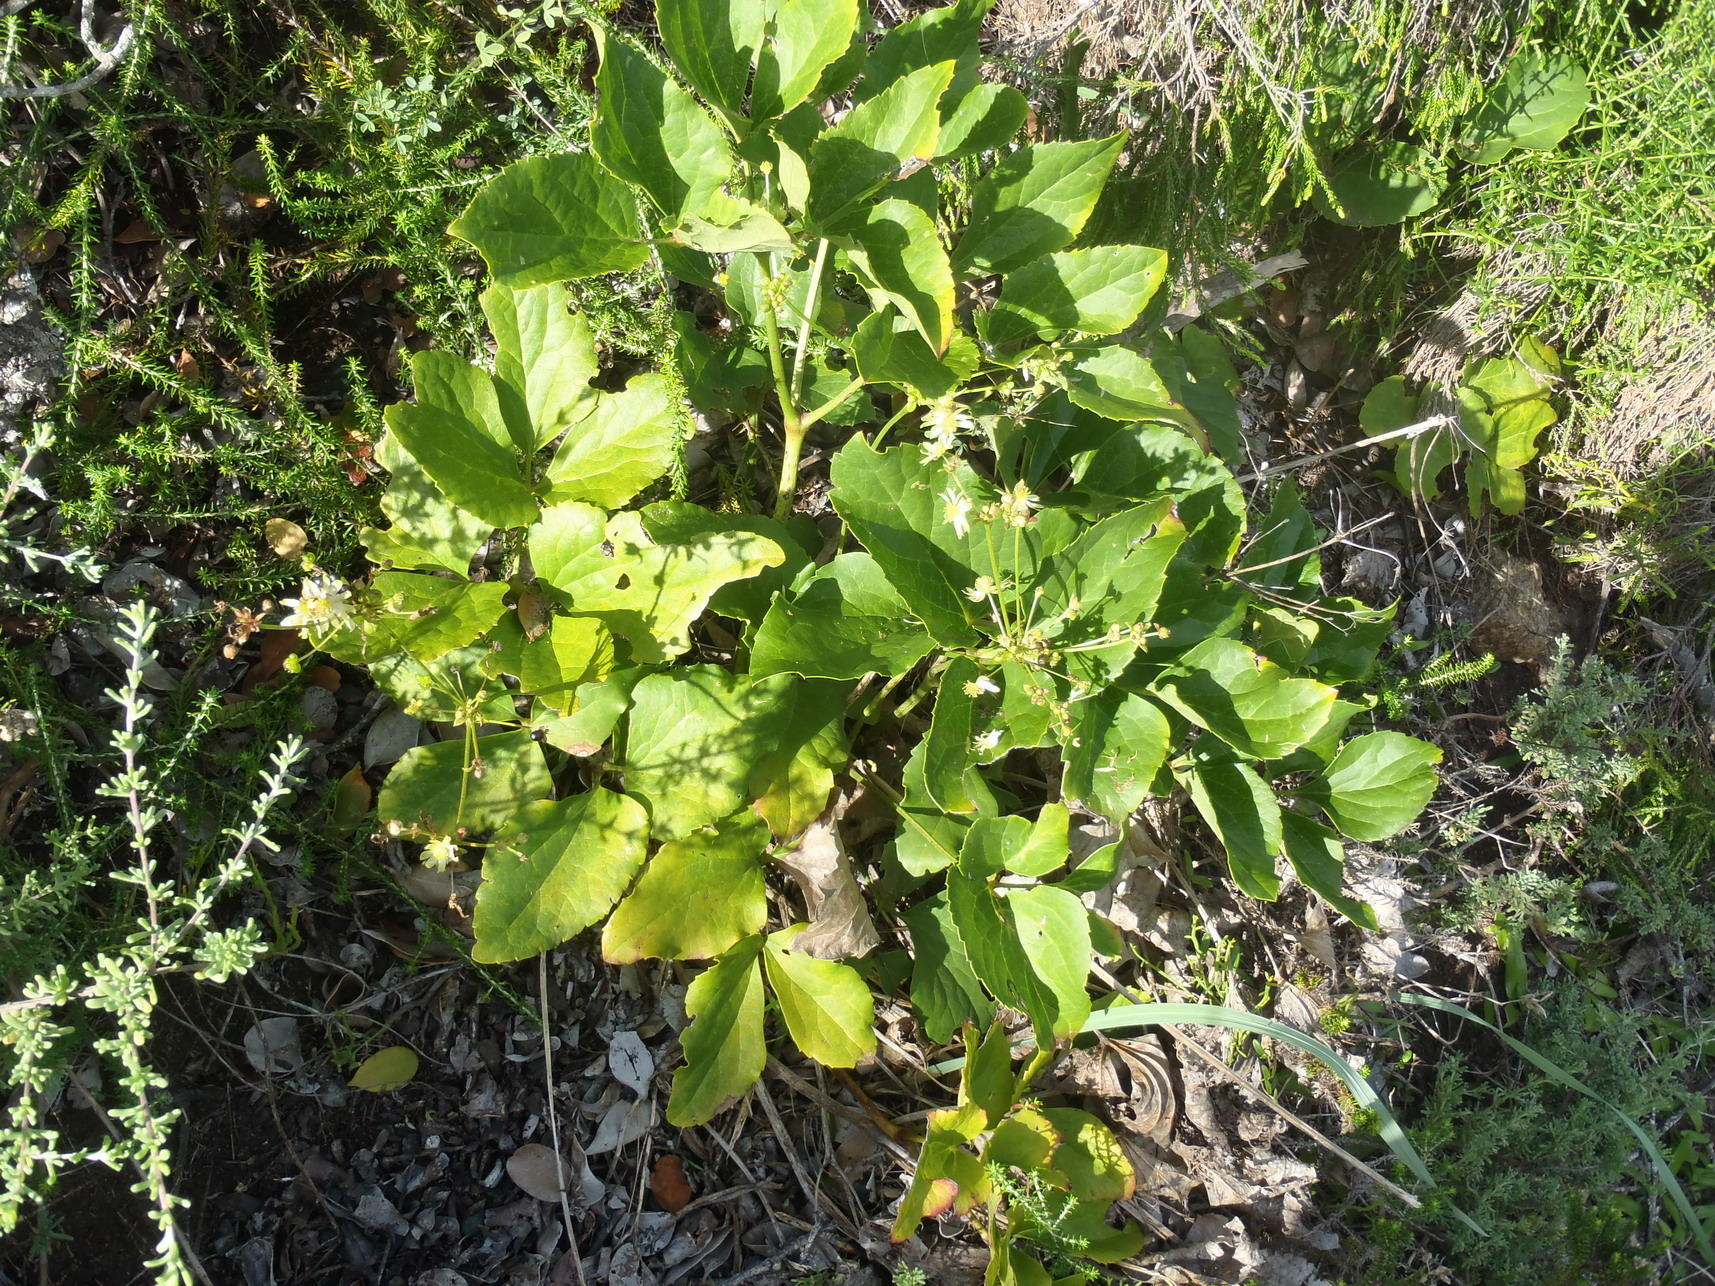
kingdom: Plantae
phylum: Tracheophyta
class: Magnoliopsida
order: Ranunculales
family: Ranunculaceae
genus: Knowltonia
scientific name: Knowltonia vesicatoria
